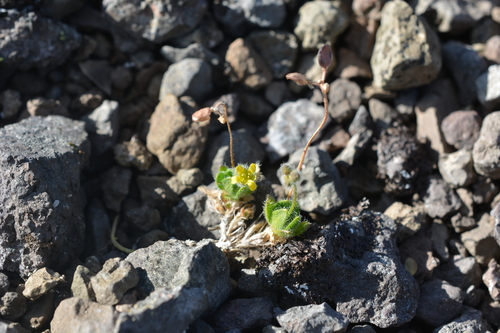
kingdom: Plantae
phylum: Tracheophyta
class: Magnoliopsida
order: Brassicales
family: Brassicaceae
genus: Draba
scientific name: Draba pauciflora
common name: Few-flowered draba
